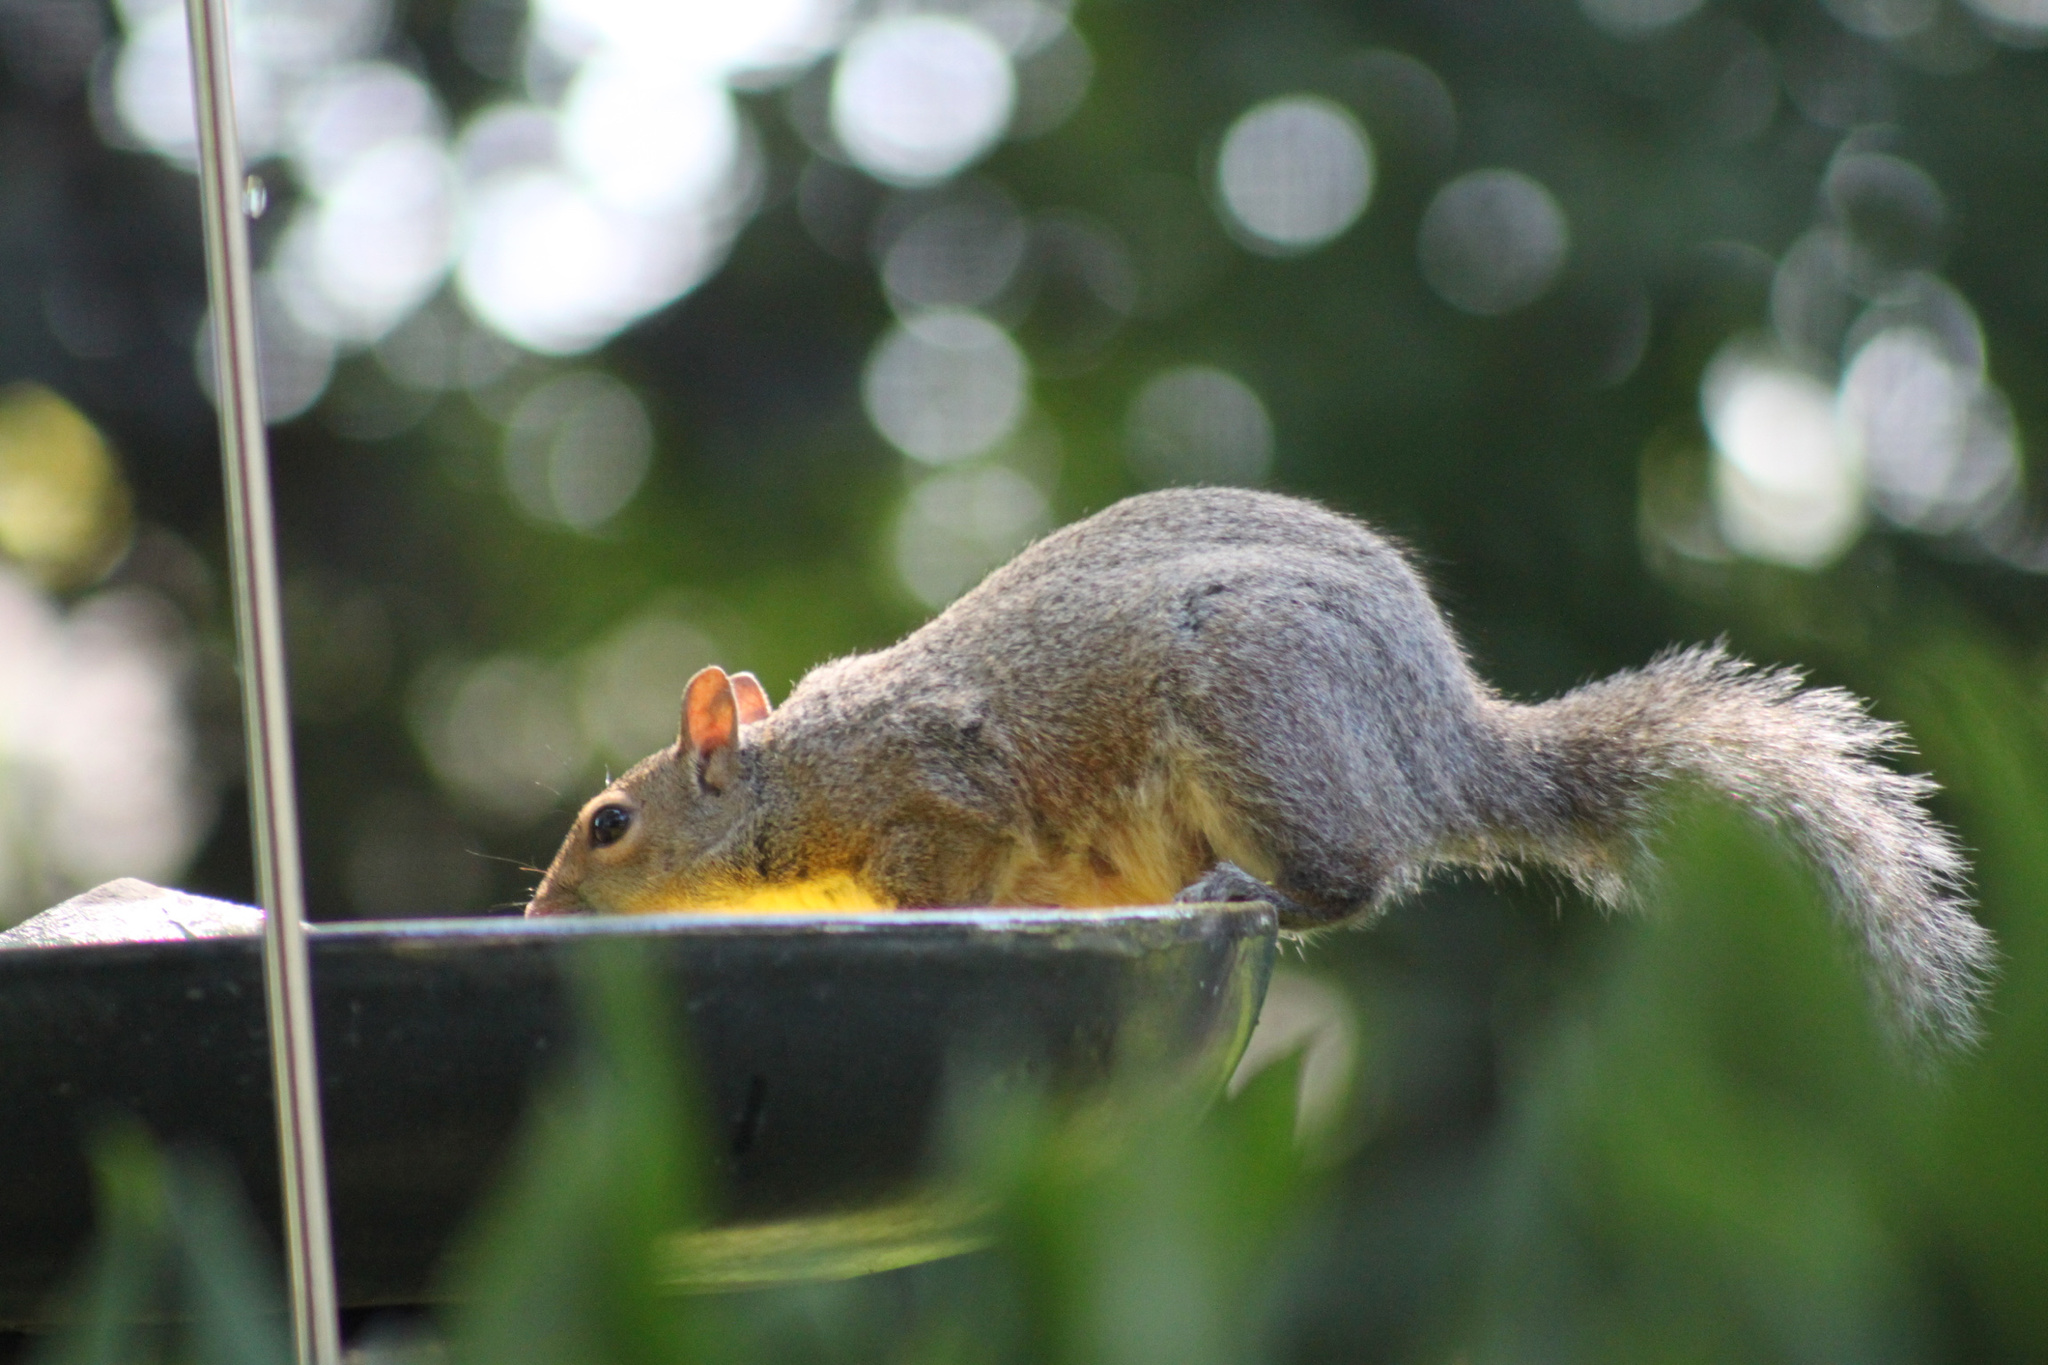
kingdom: Animalia
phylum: Chordata
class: Mammalia
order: Rodentia
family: Sciuridae
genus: Sciurus
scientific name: Sciurus carolinensis
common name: Eastern gray squirrel
